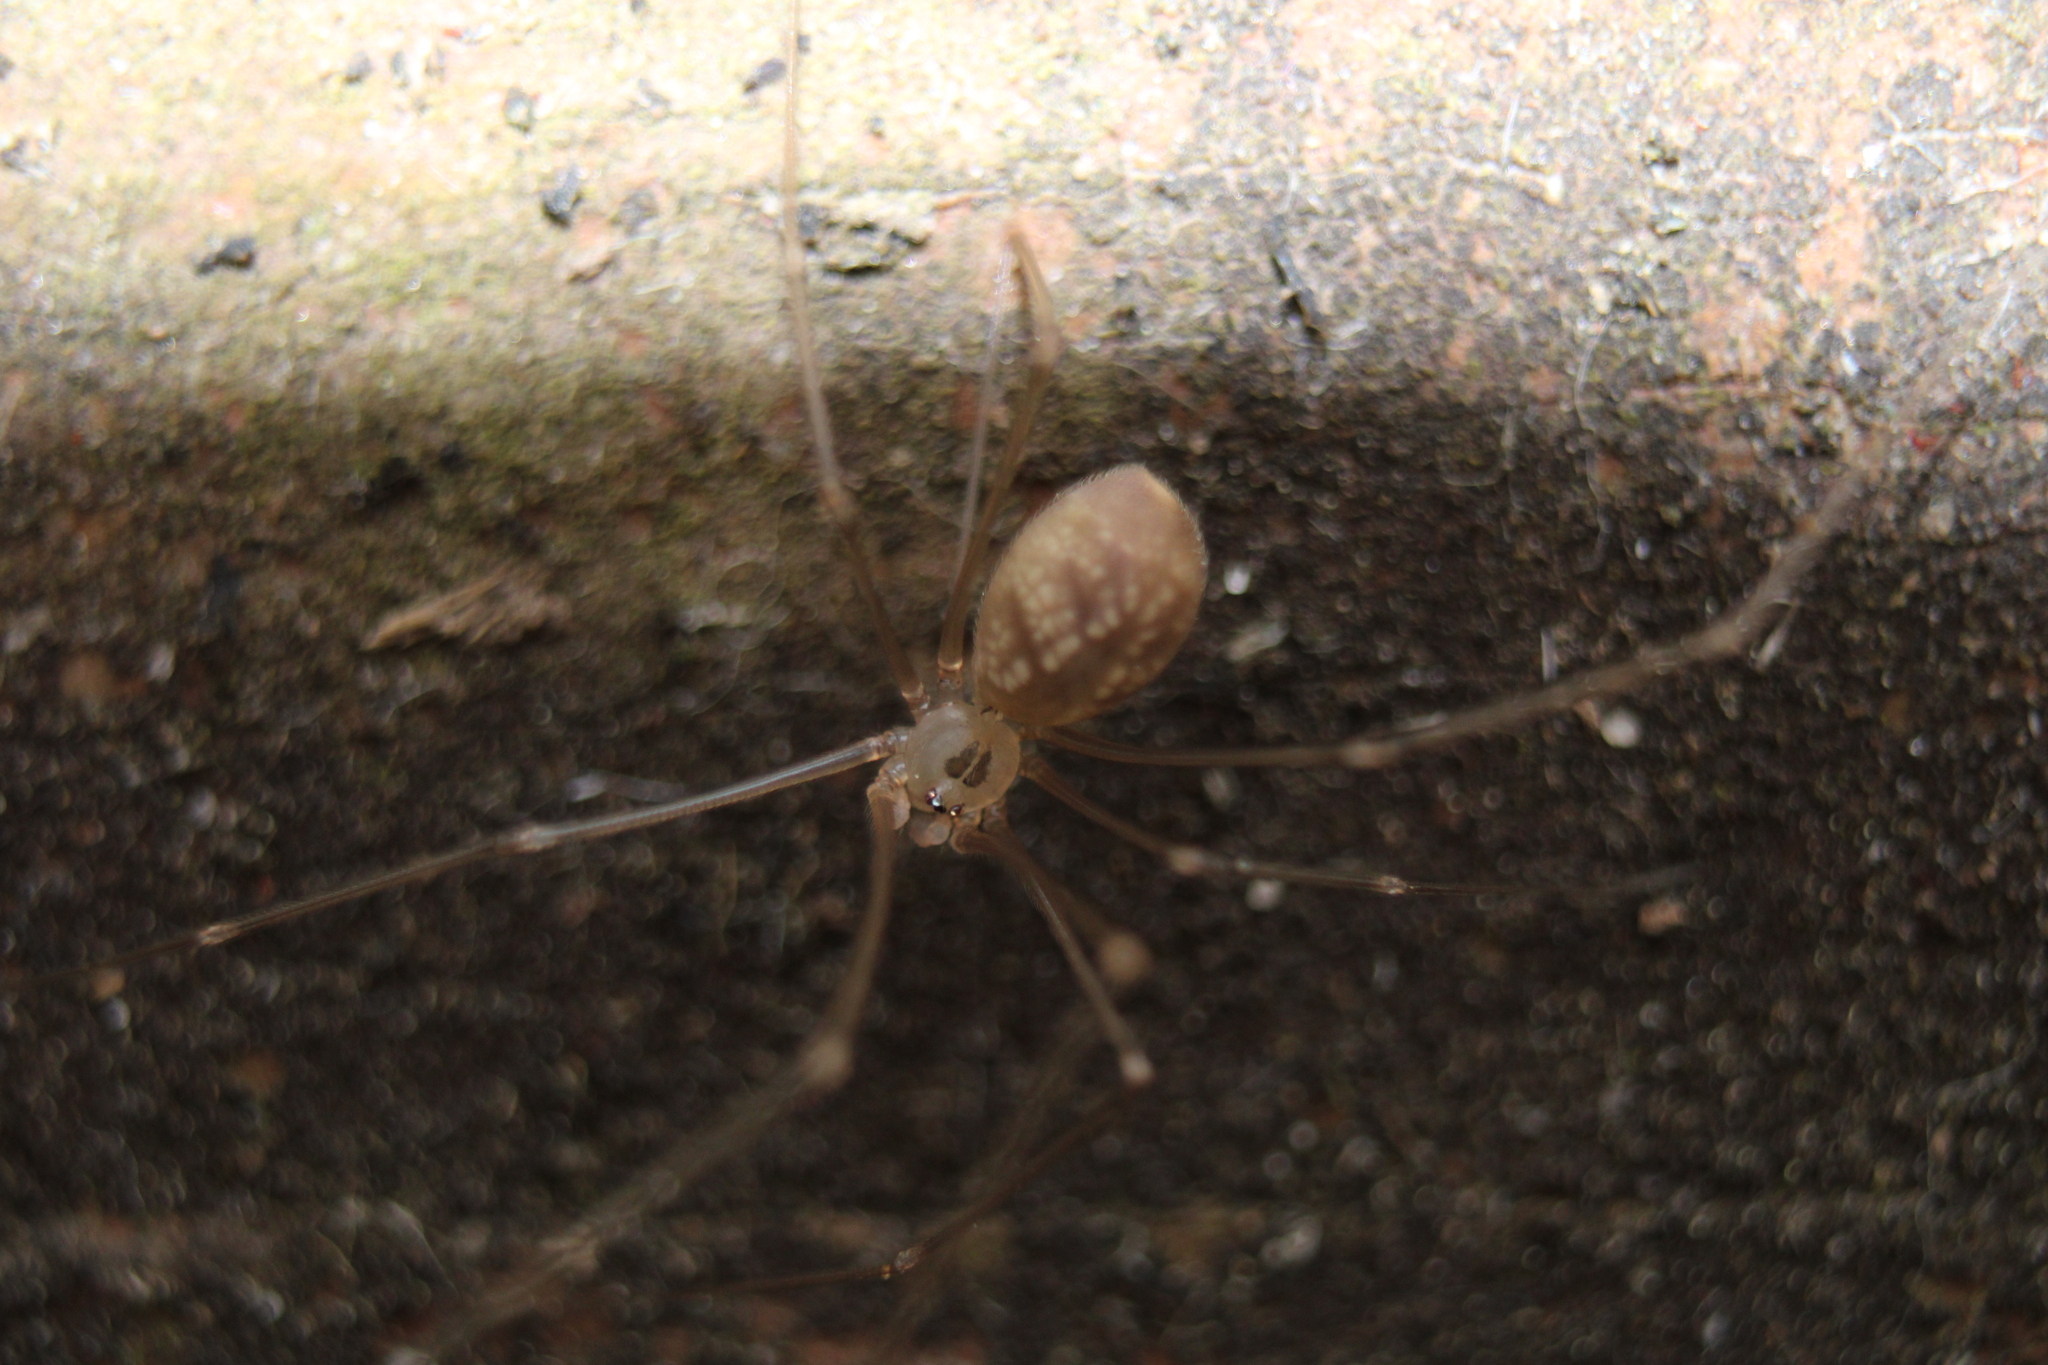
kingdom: Animalia
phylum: Arthropoda
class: Arachnida
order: Araneae
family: Pholcidae
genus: Pholcus
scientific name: Pholcus manueli
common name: Cellar spider
